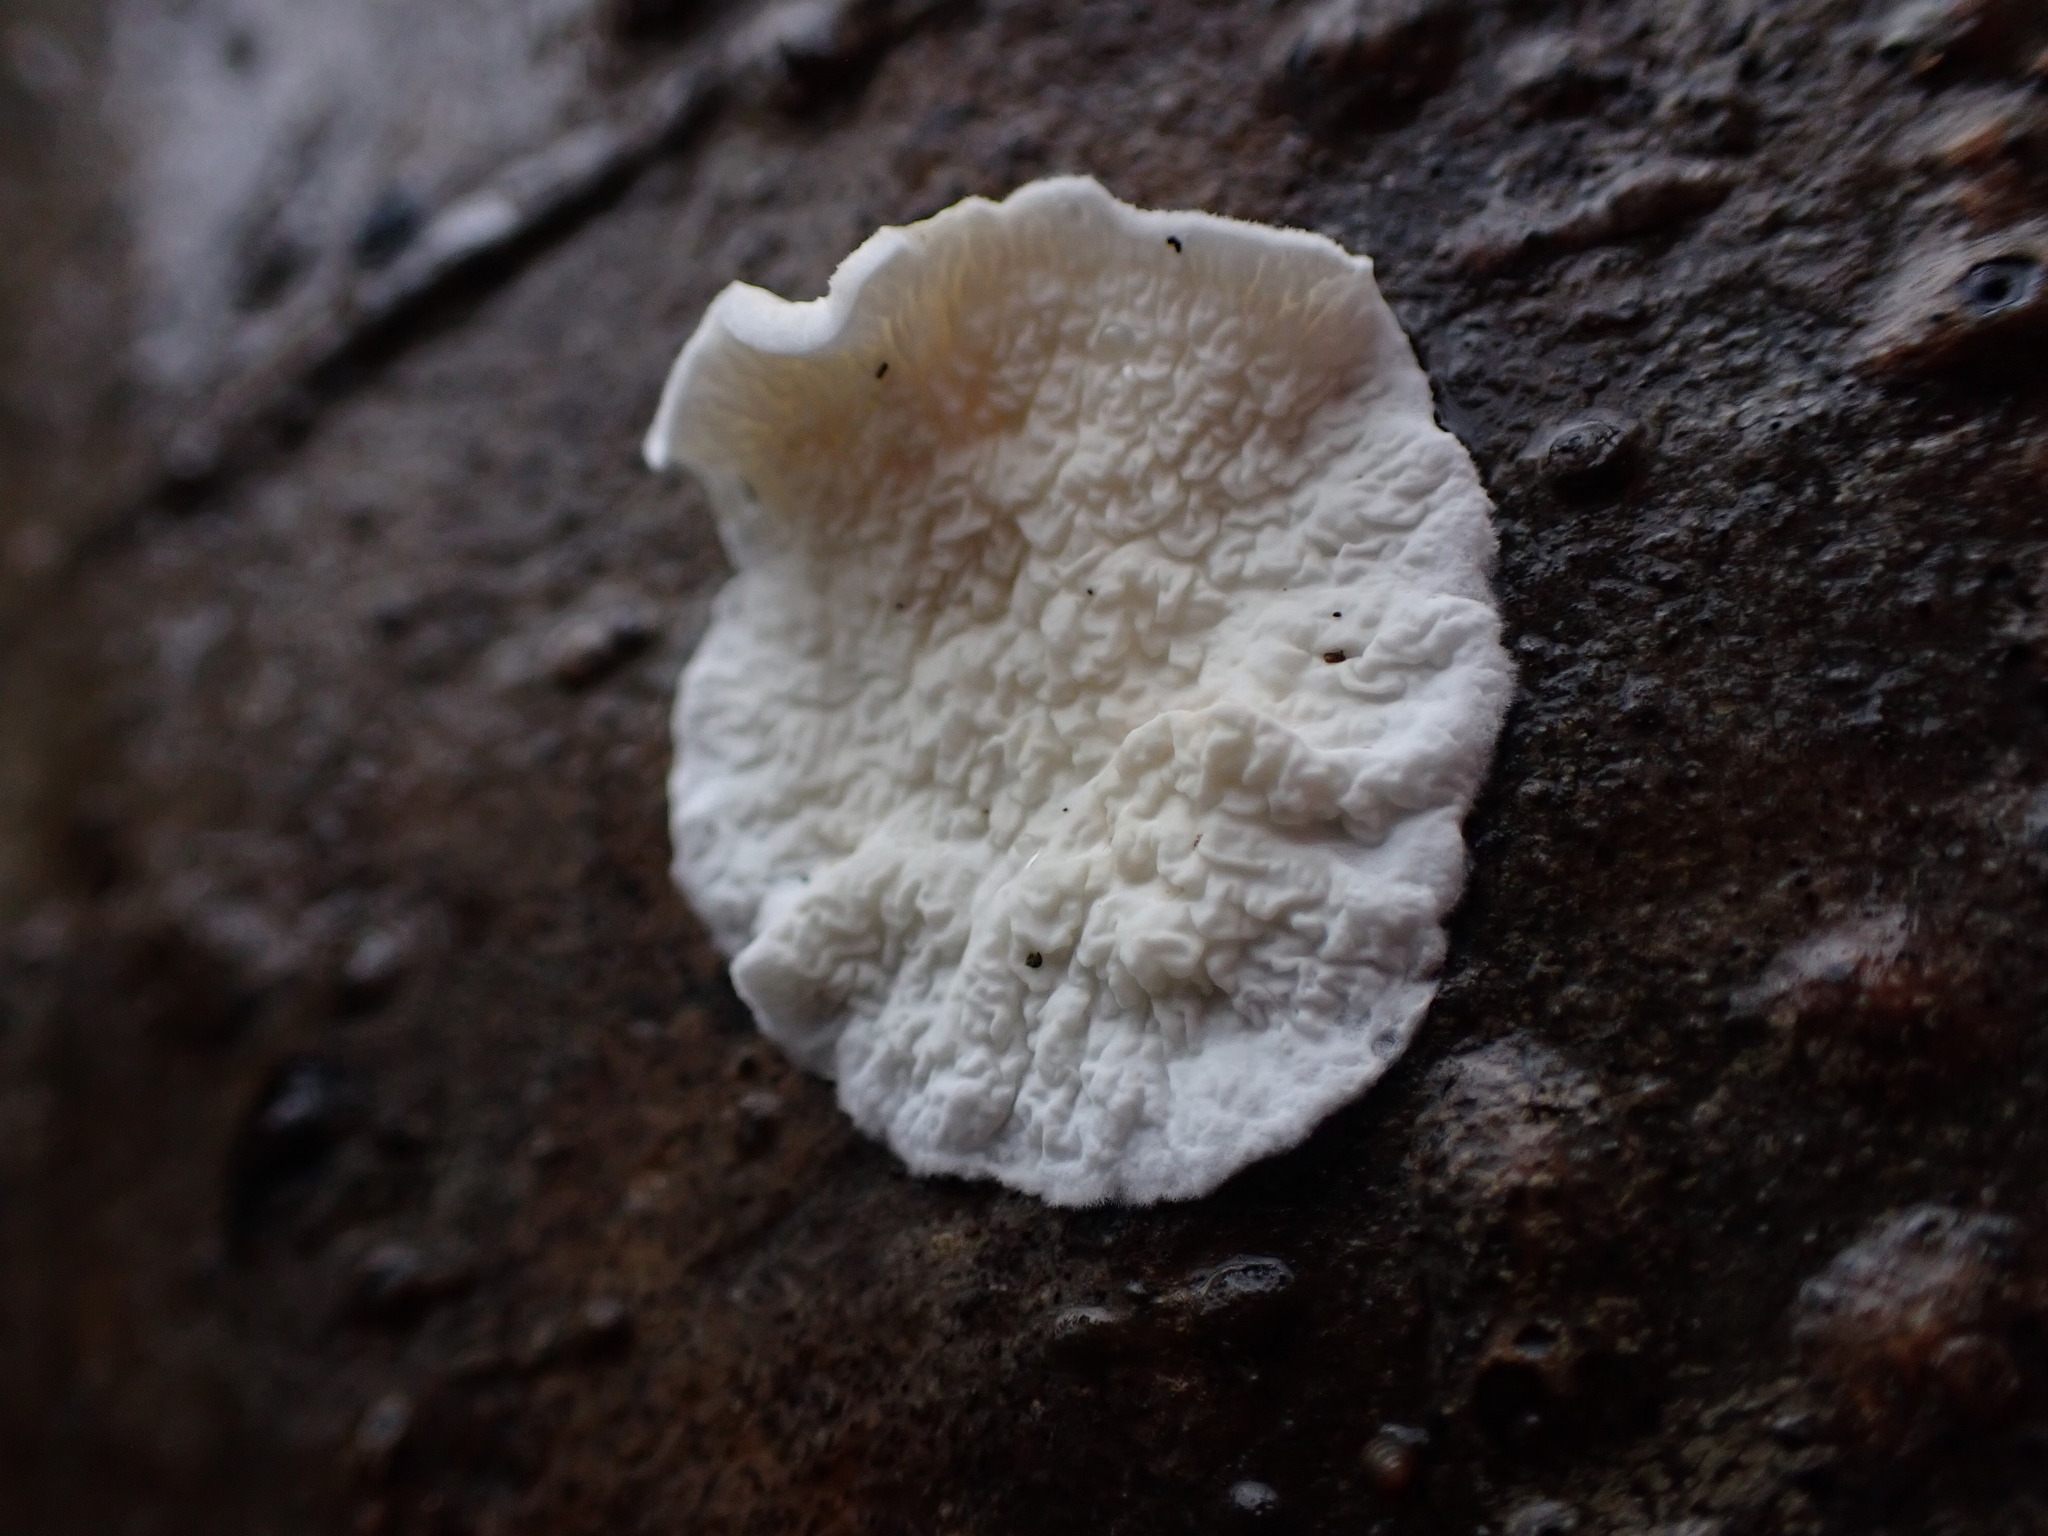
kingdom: Fungi
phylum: Basidiomycota
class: Agaricomycetes
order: Agaricales
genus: Plicatura
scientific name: Plicatura nivea
